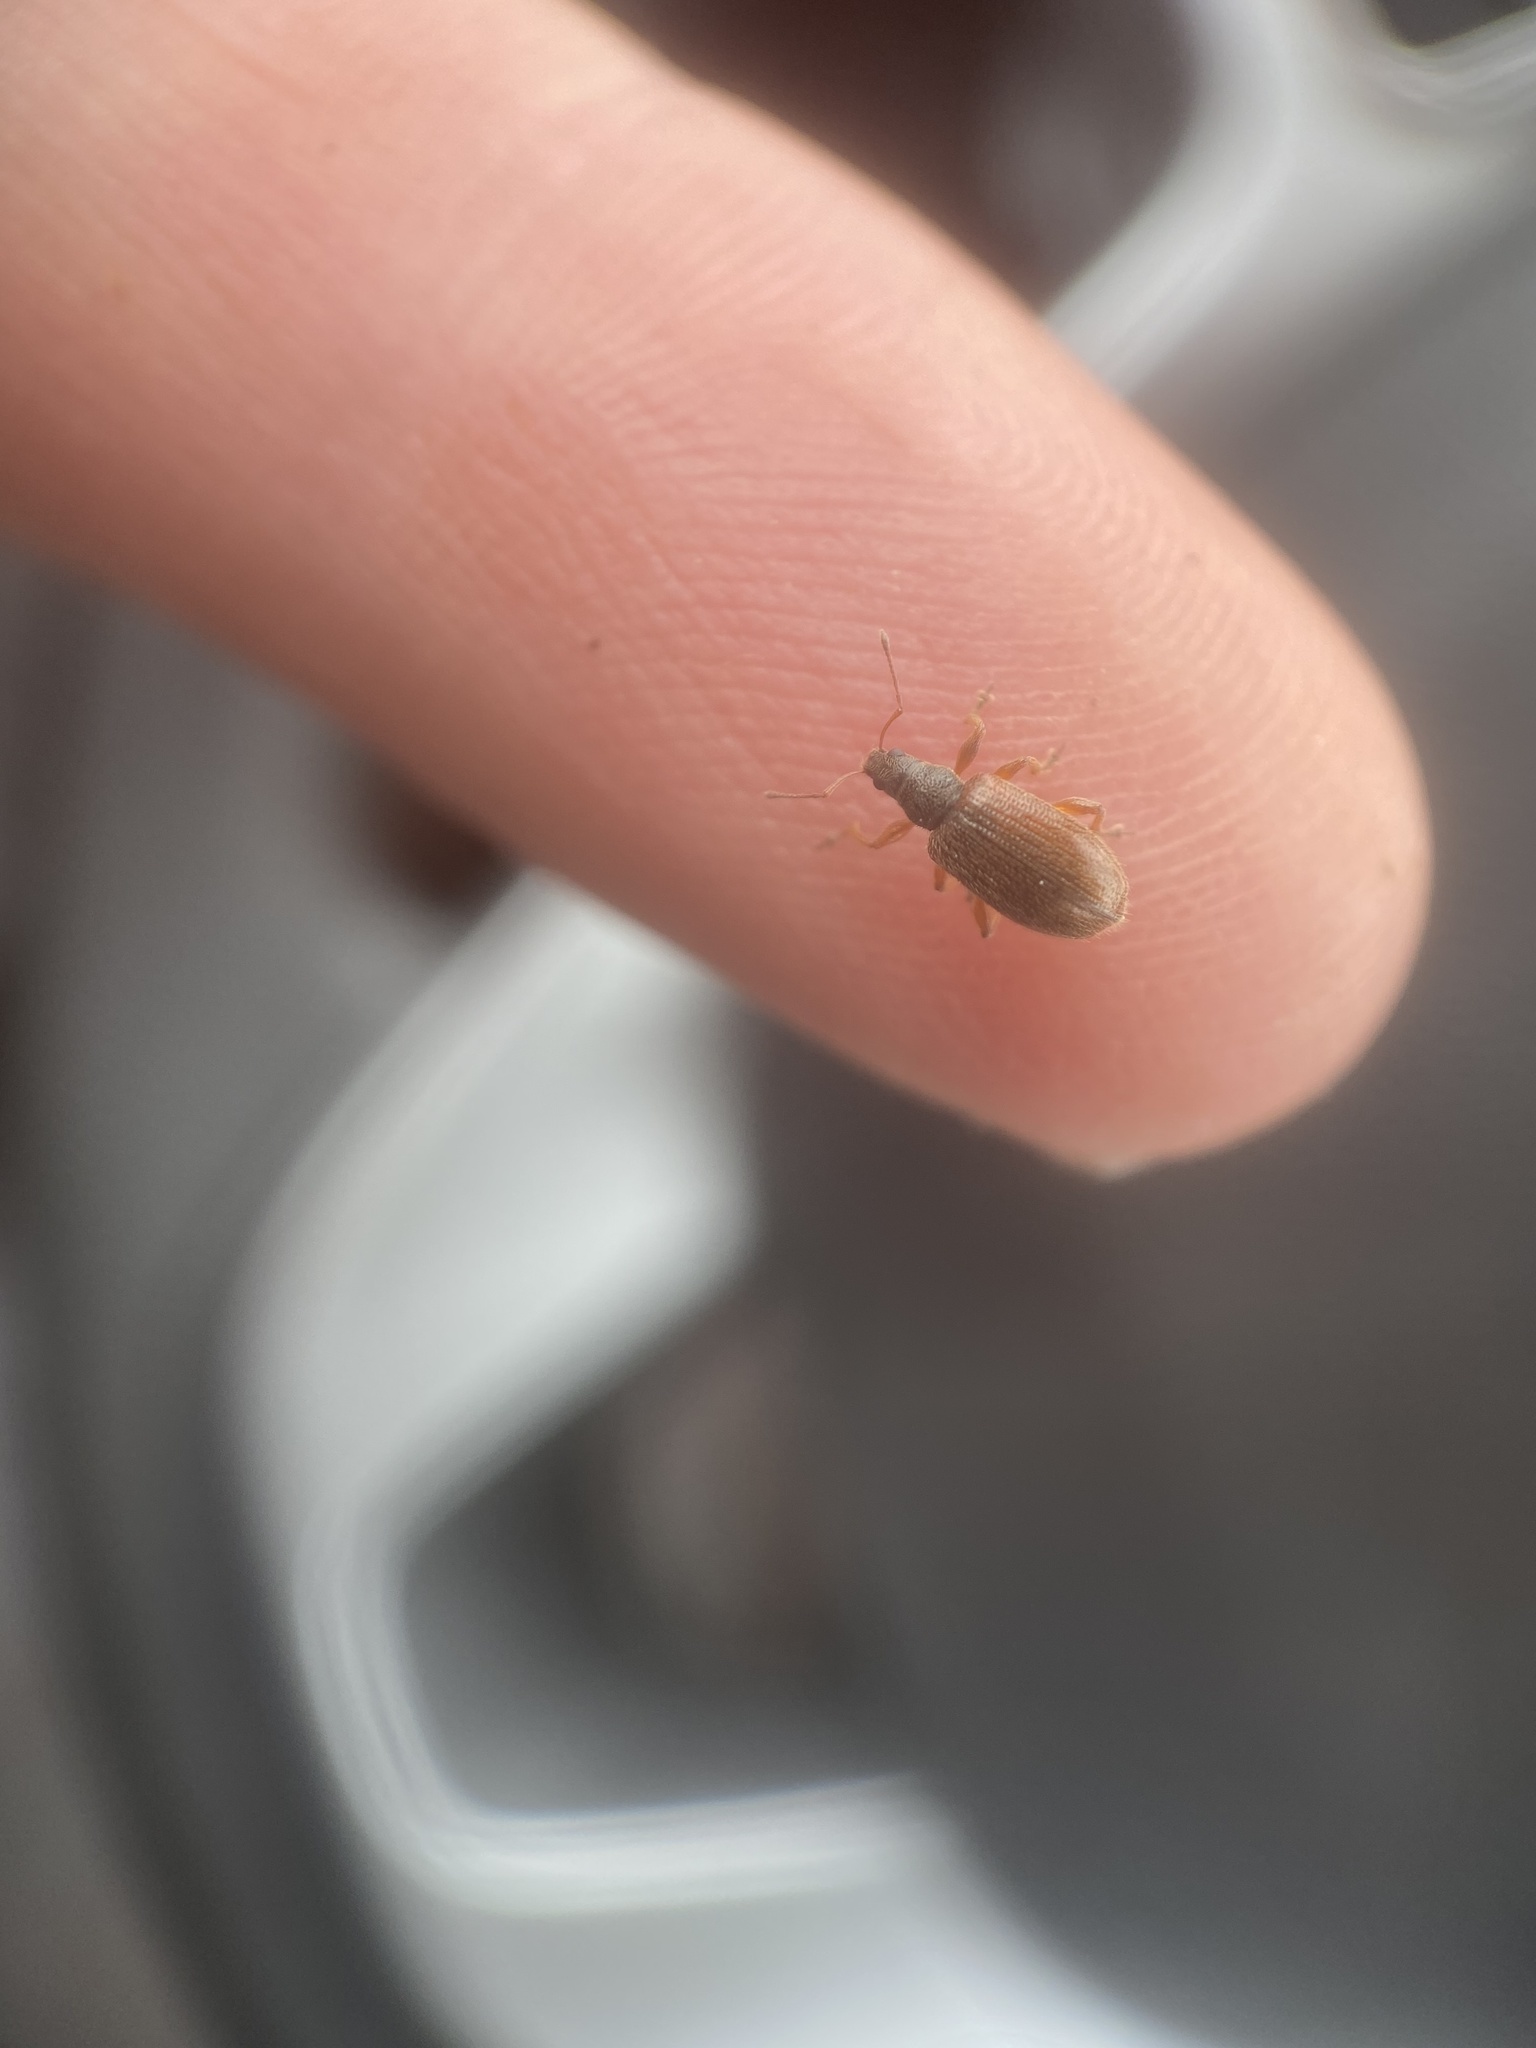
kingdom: Animalia
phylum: Arthropoda
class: Insecta
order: Coleoptera
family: Curculionidae
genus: Phyllobius
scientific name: Phyllobius oblongus
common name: Brown leaf weevil
